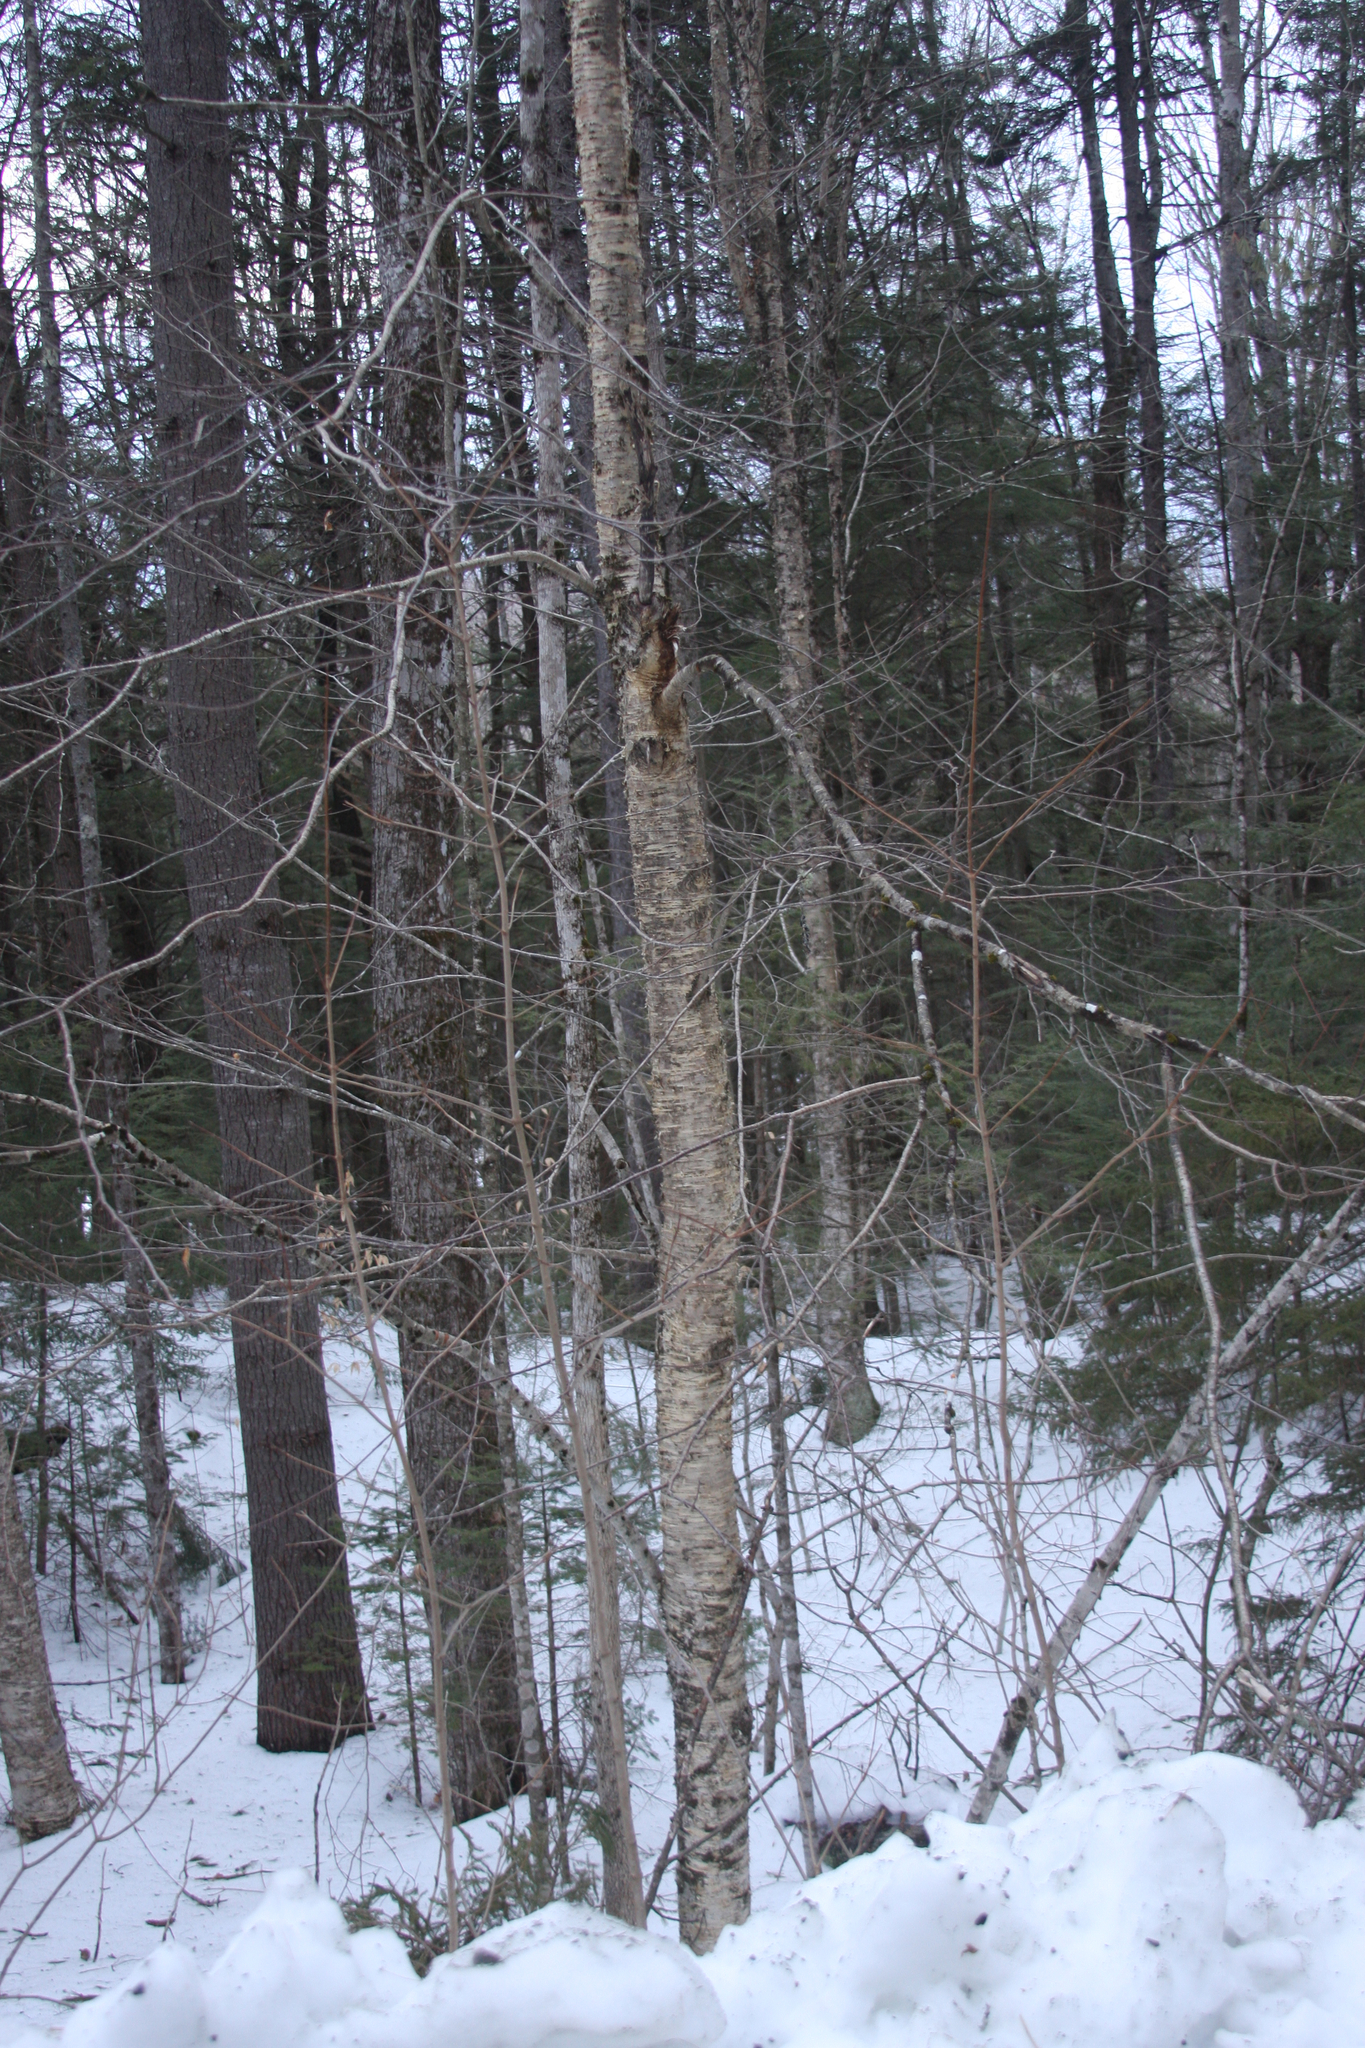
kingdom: Plantae
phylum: Tracheophyta
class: Magnoliopsida
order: Fagales
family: Betulaceae
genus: Betula
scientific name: Betula alleghaniensis
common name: Yellow birch
